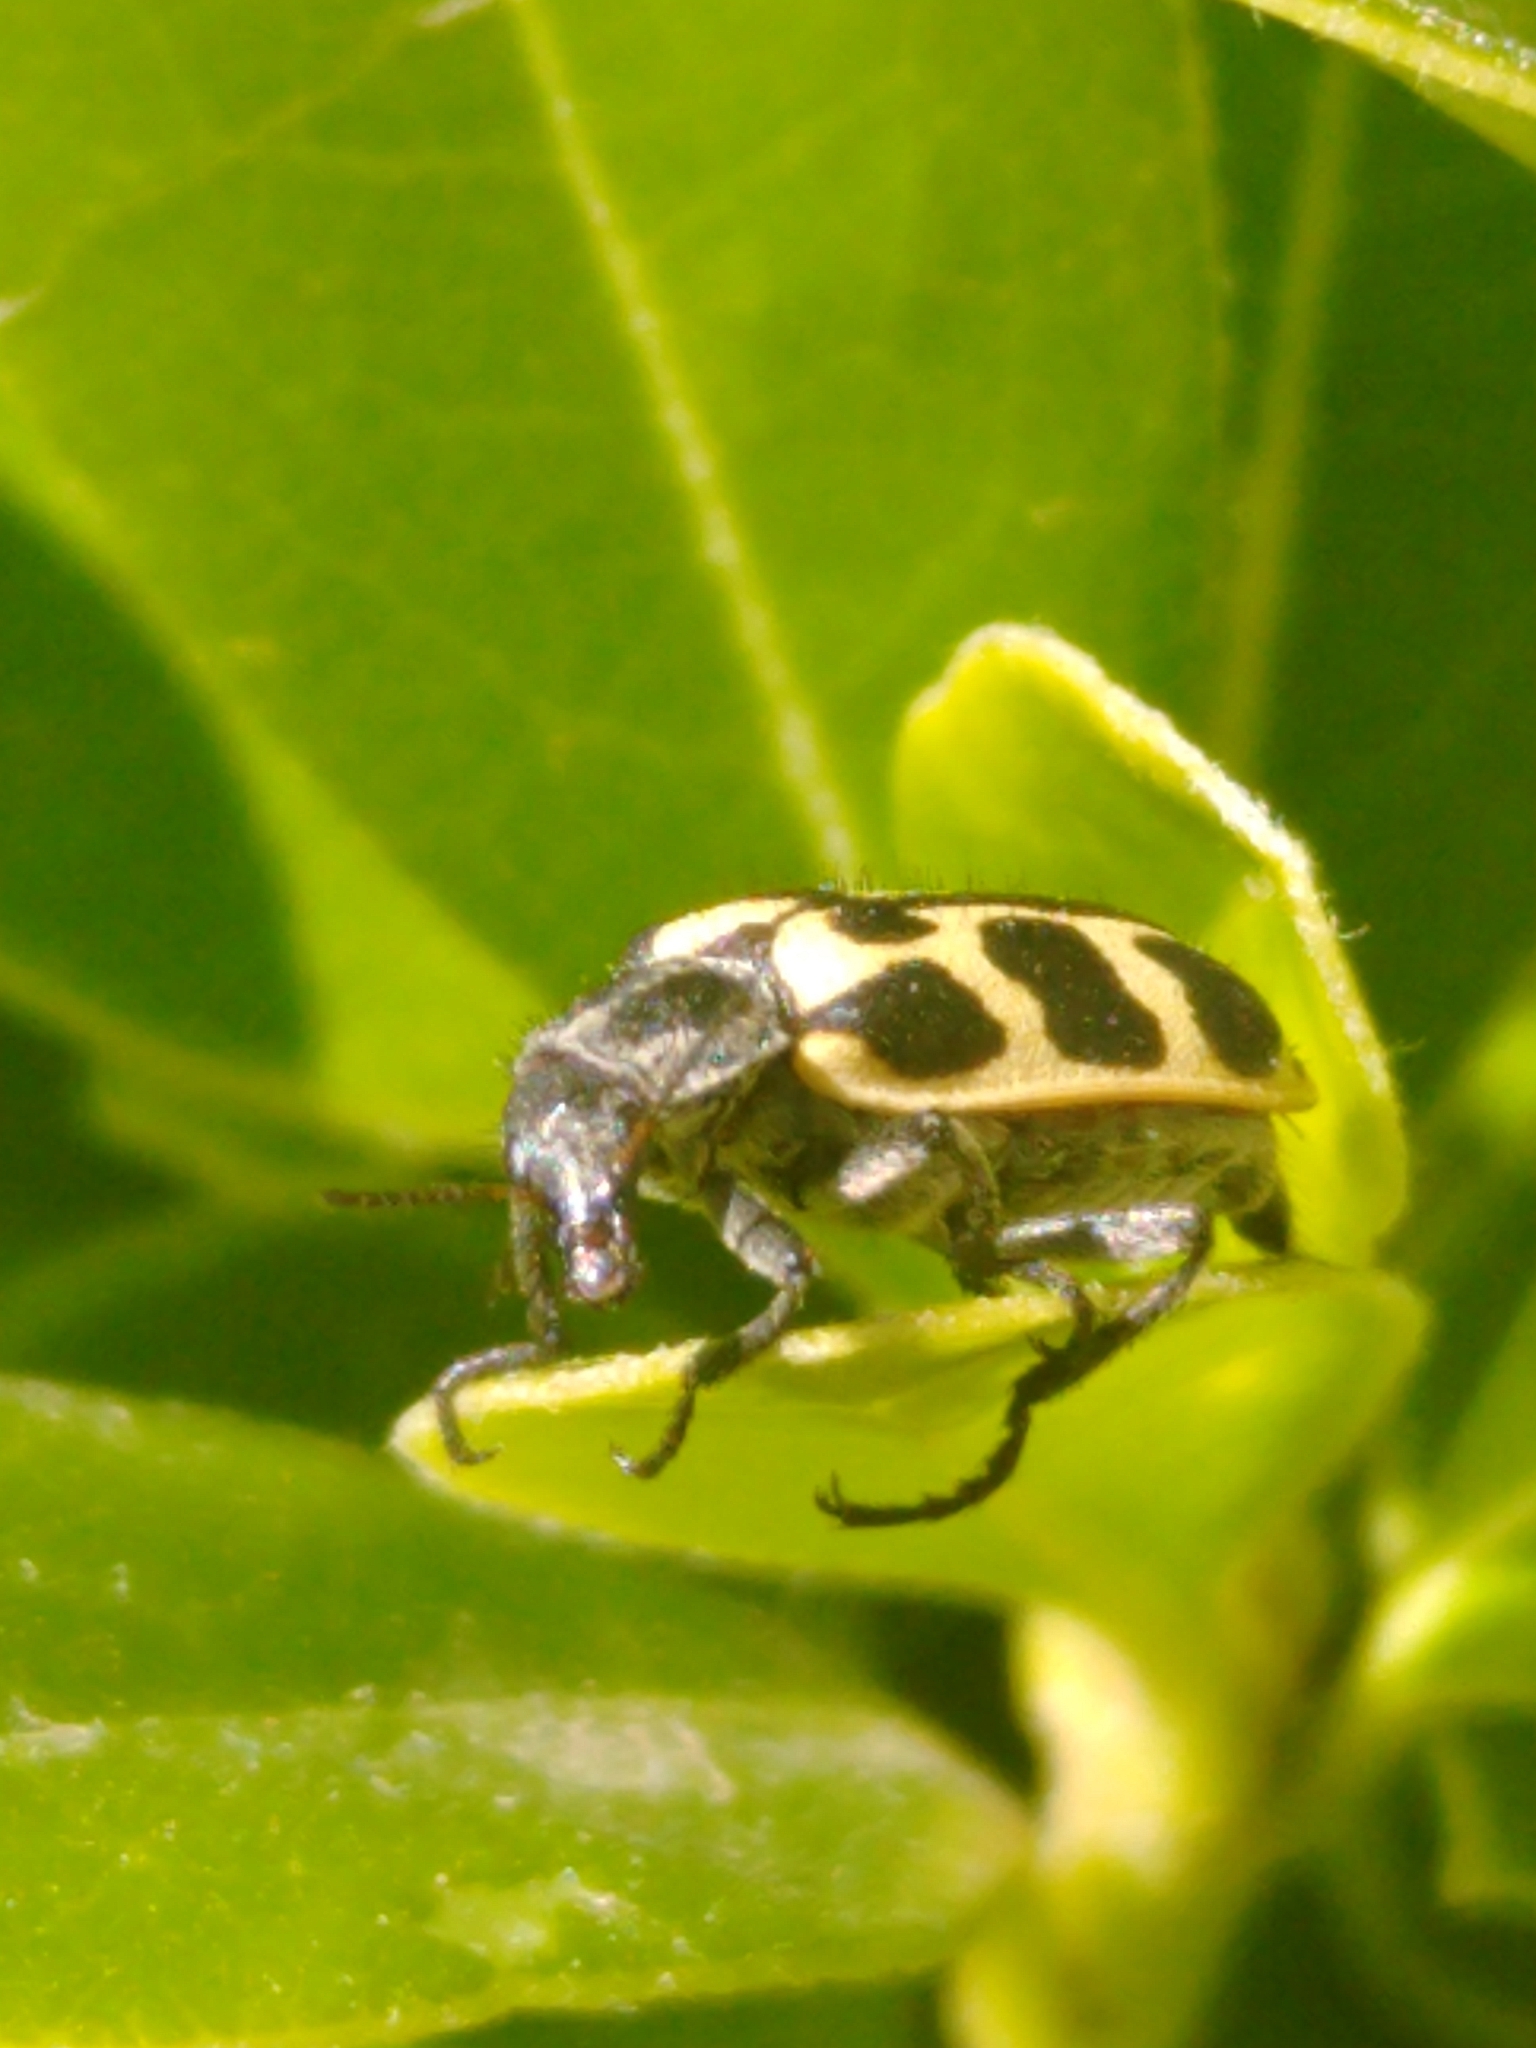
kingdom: Animalia
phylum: Arthropoda
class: Insecta
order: Coleoptera
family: Melyridae
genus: Astylus
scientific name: Astylus atromaculatus
